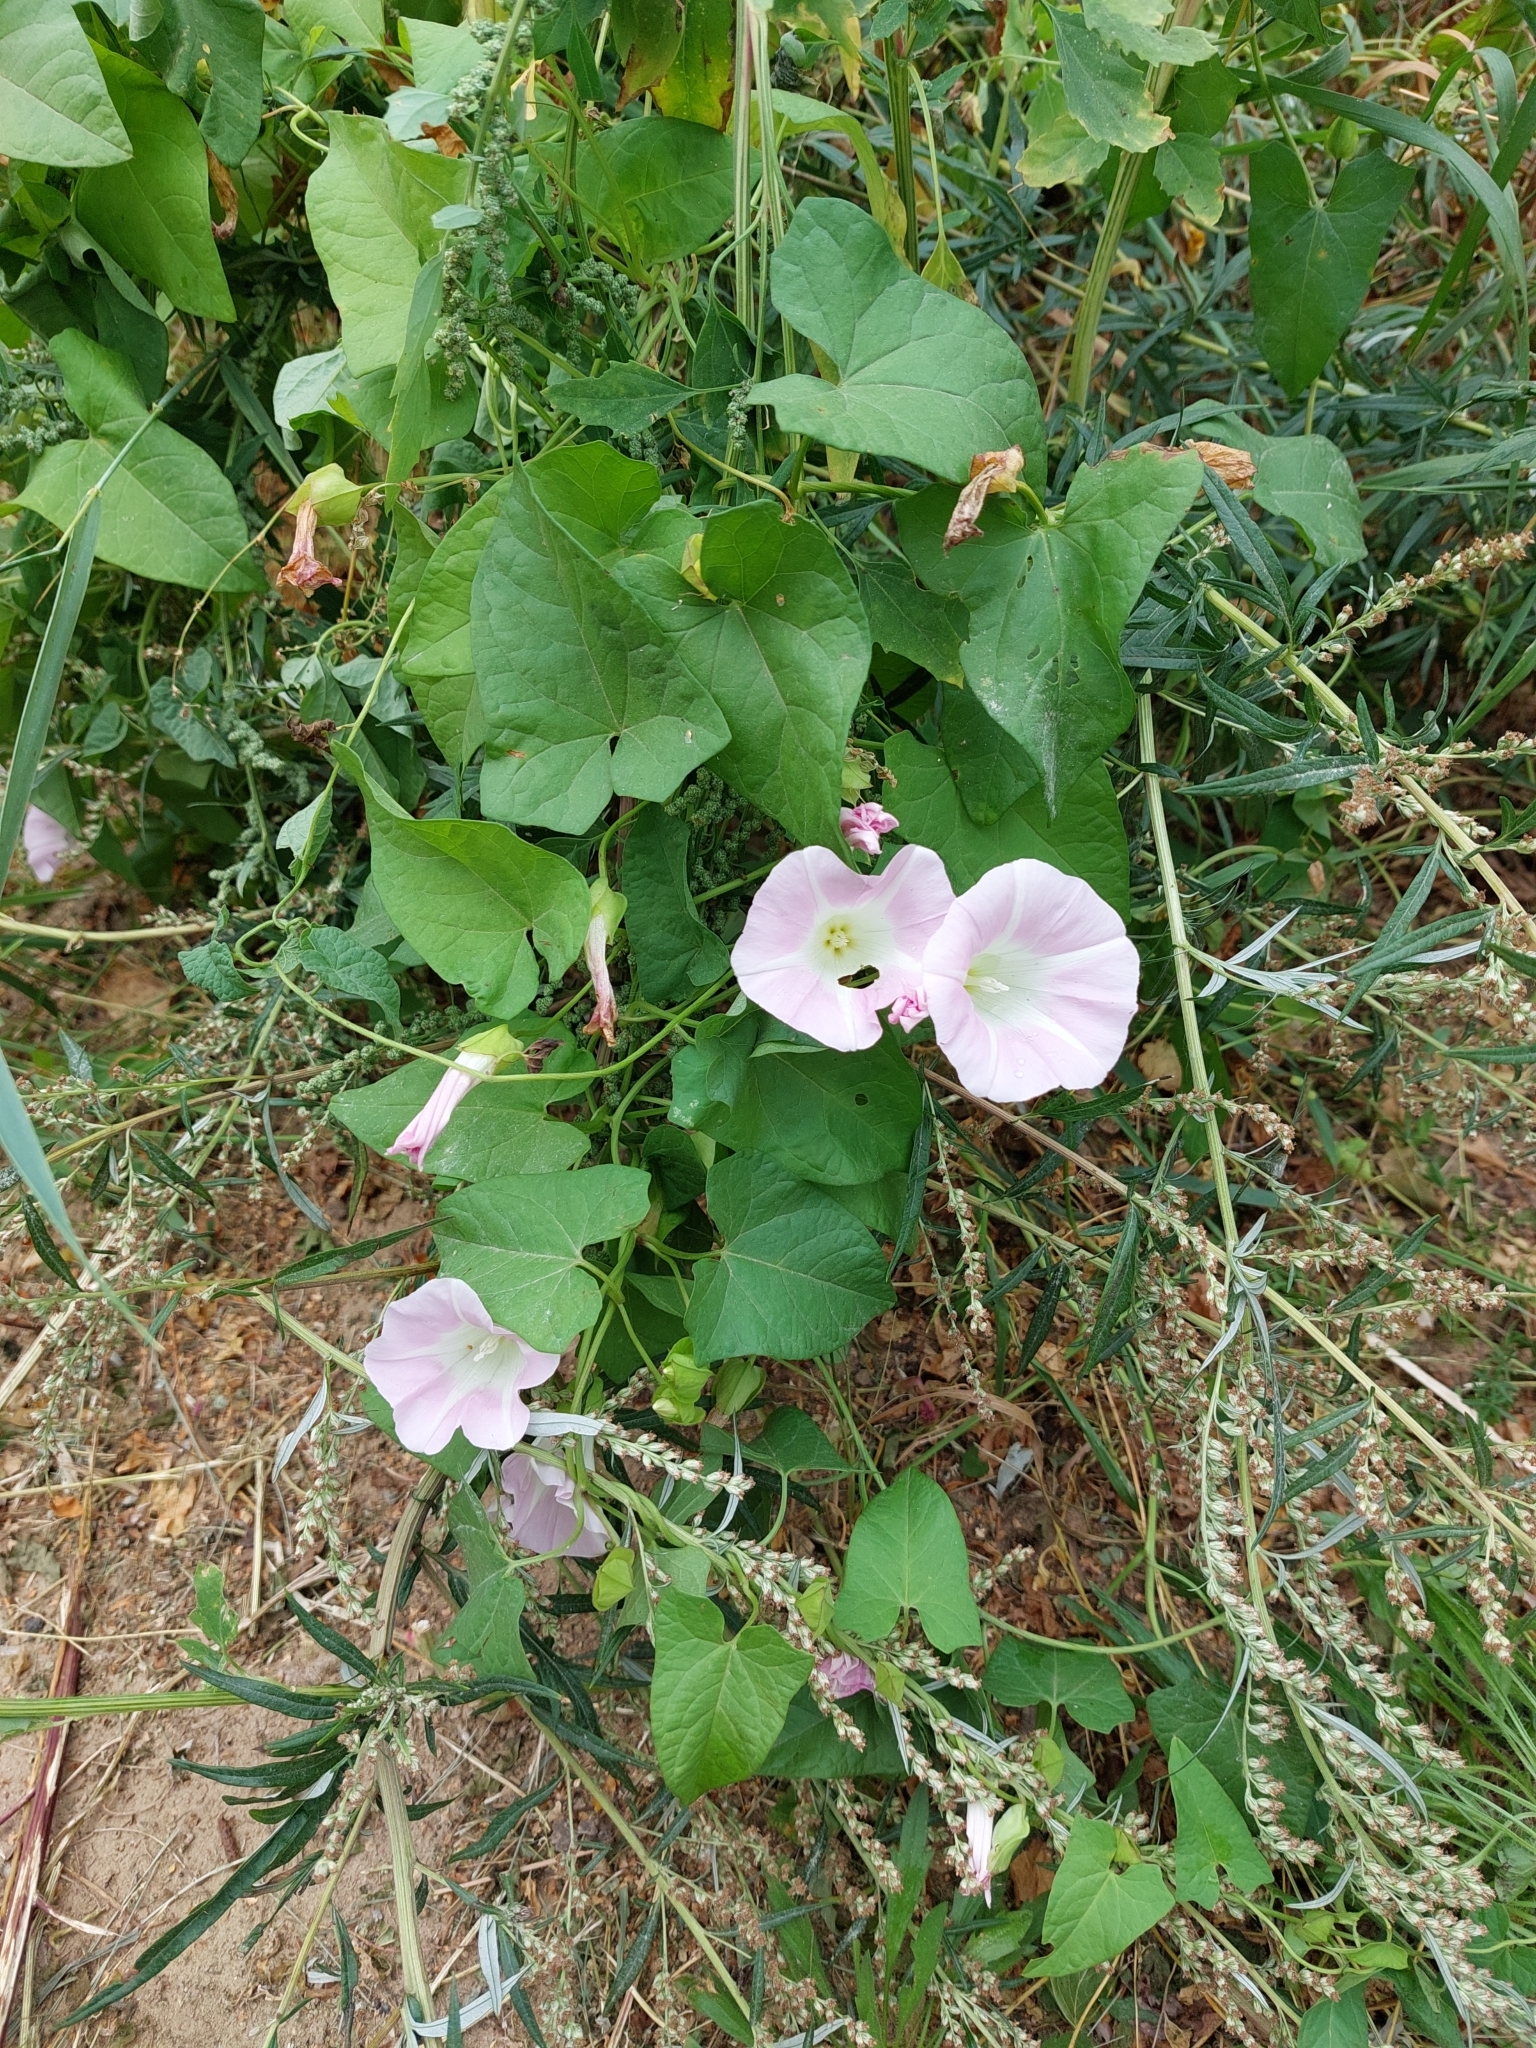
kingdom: Plantae
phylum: Tracheophyta
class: Magnoliopsida
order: Solanales
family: Convolvulaceae
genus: Calystegia
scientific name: Calystegia sepium
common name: Hedge bindweed
